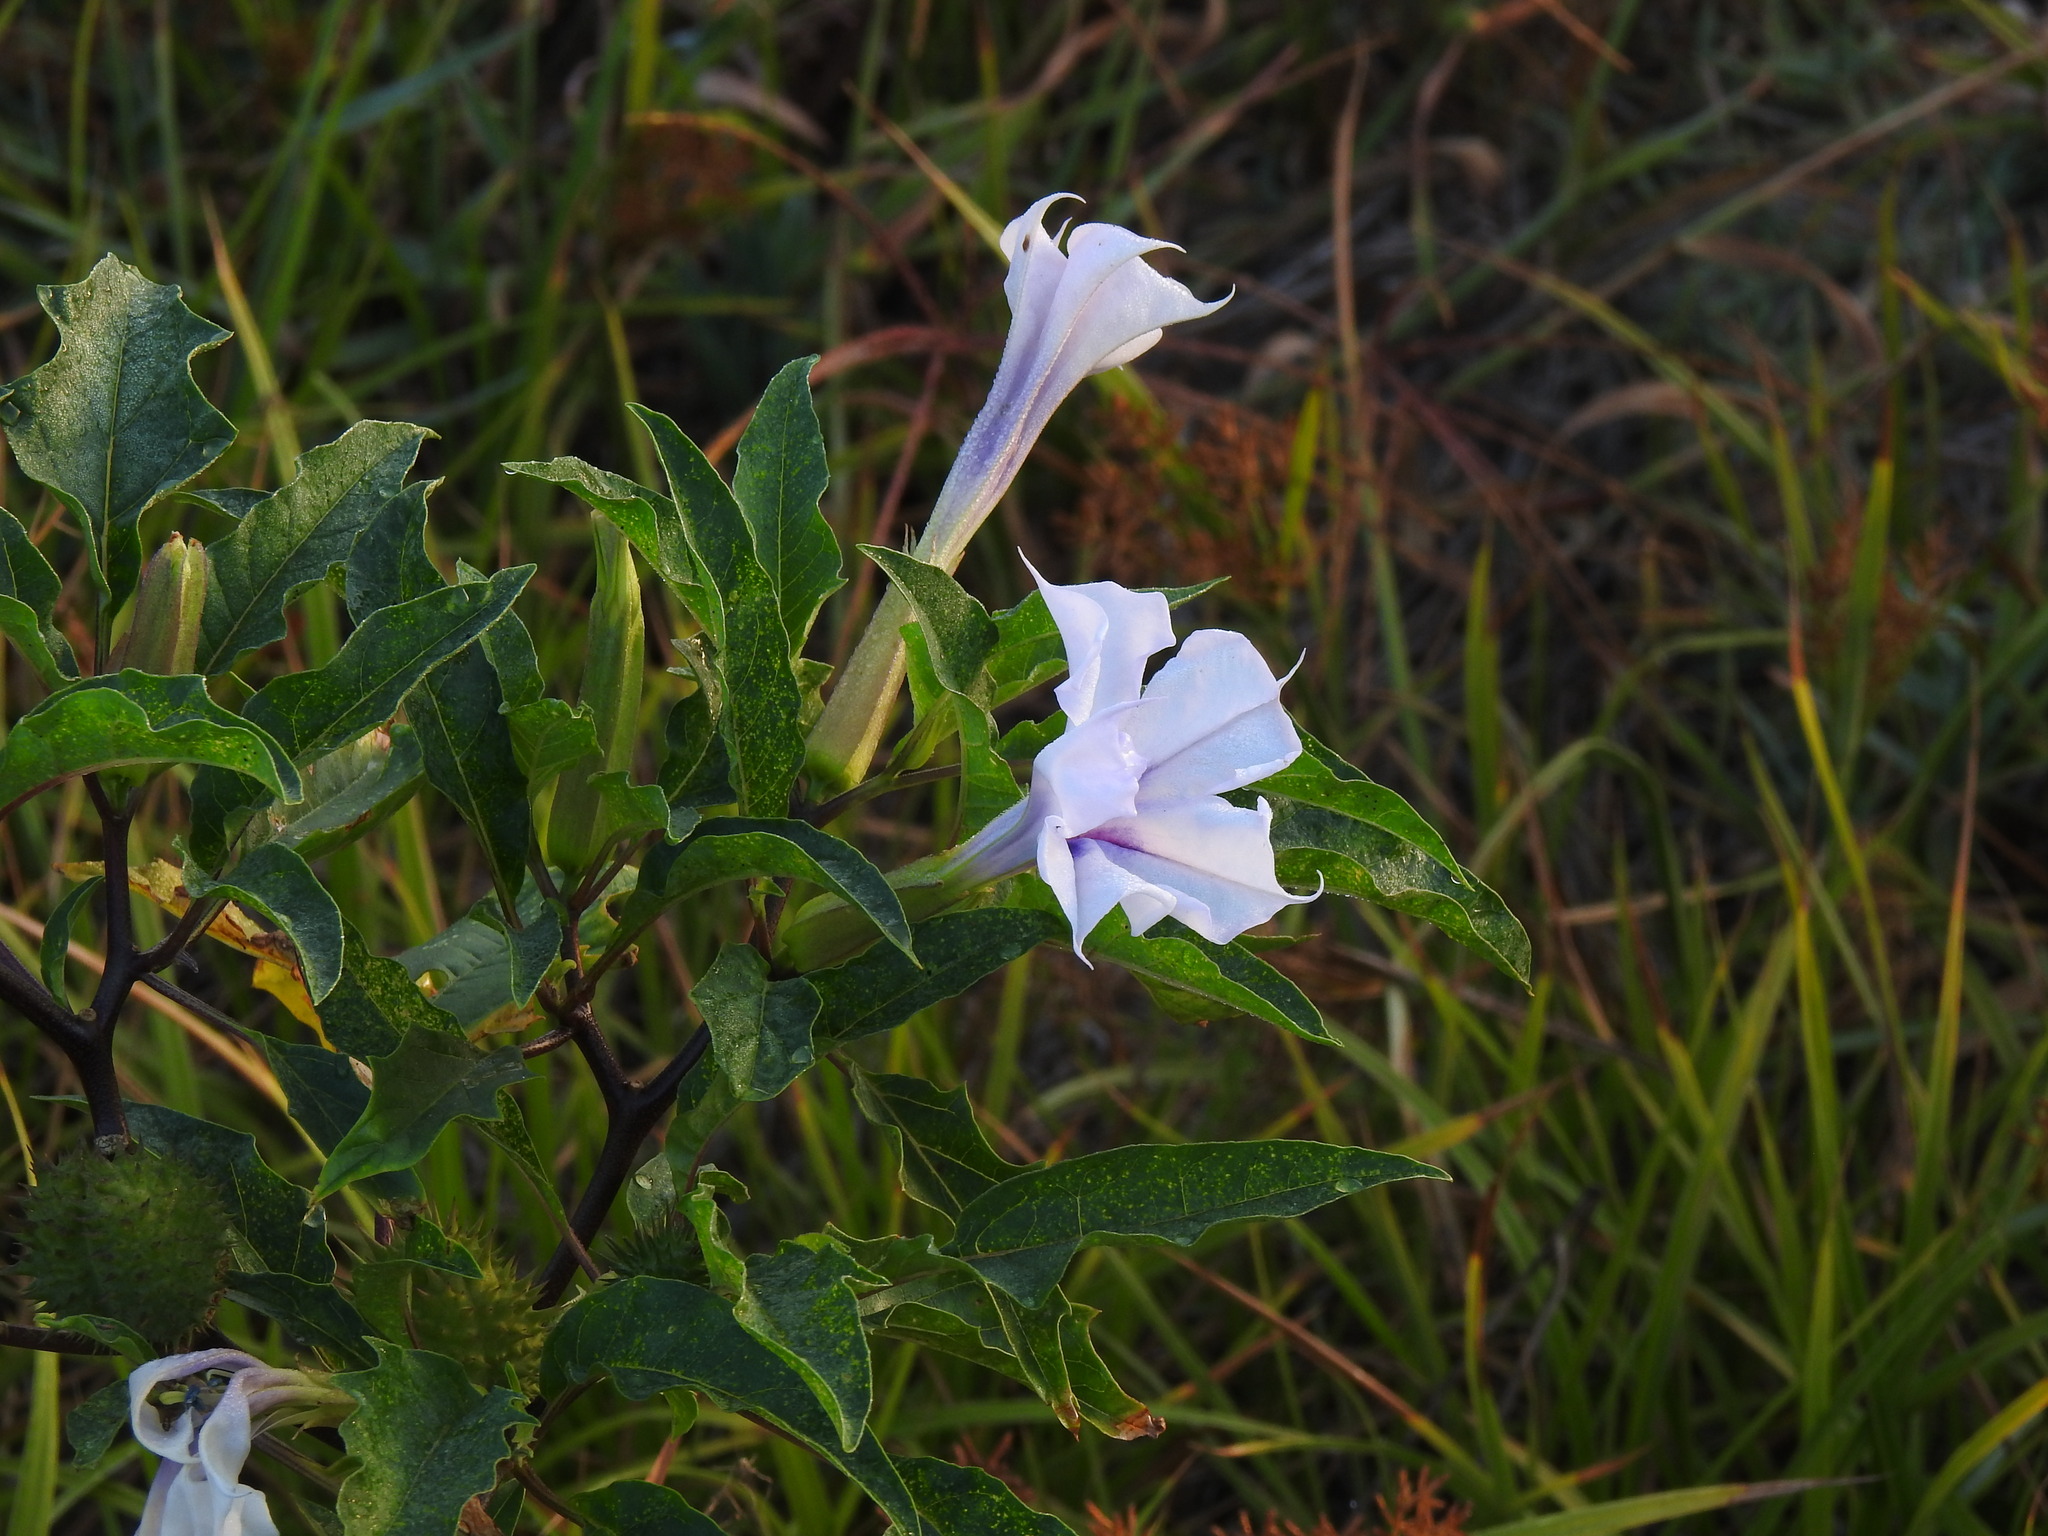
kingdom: Plantae
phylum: Tracheophyta
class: Magnoliopsida
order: Solanales
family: Solanaceae
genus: Datura
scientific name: Datura stramonium
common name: Thorn-apple
